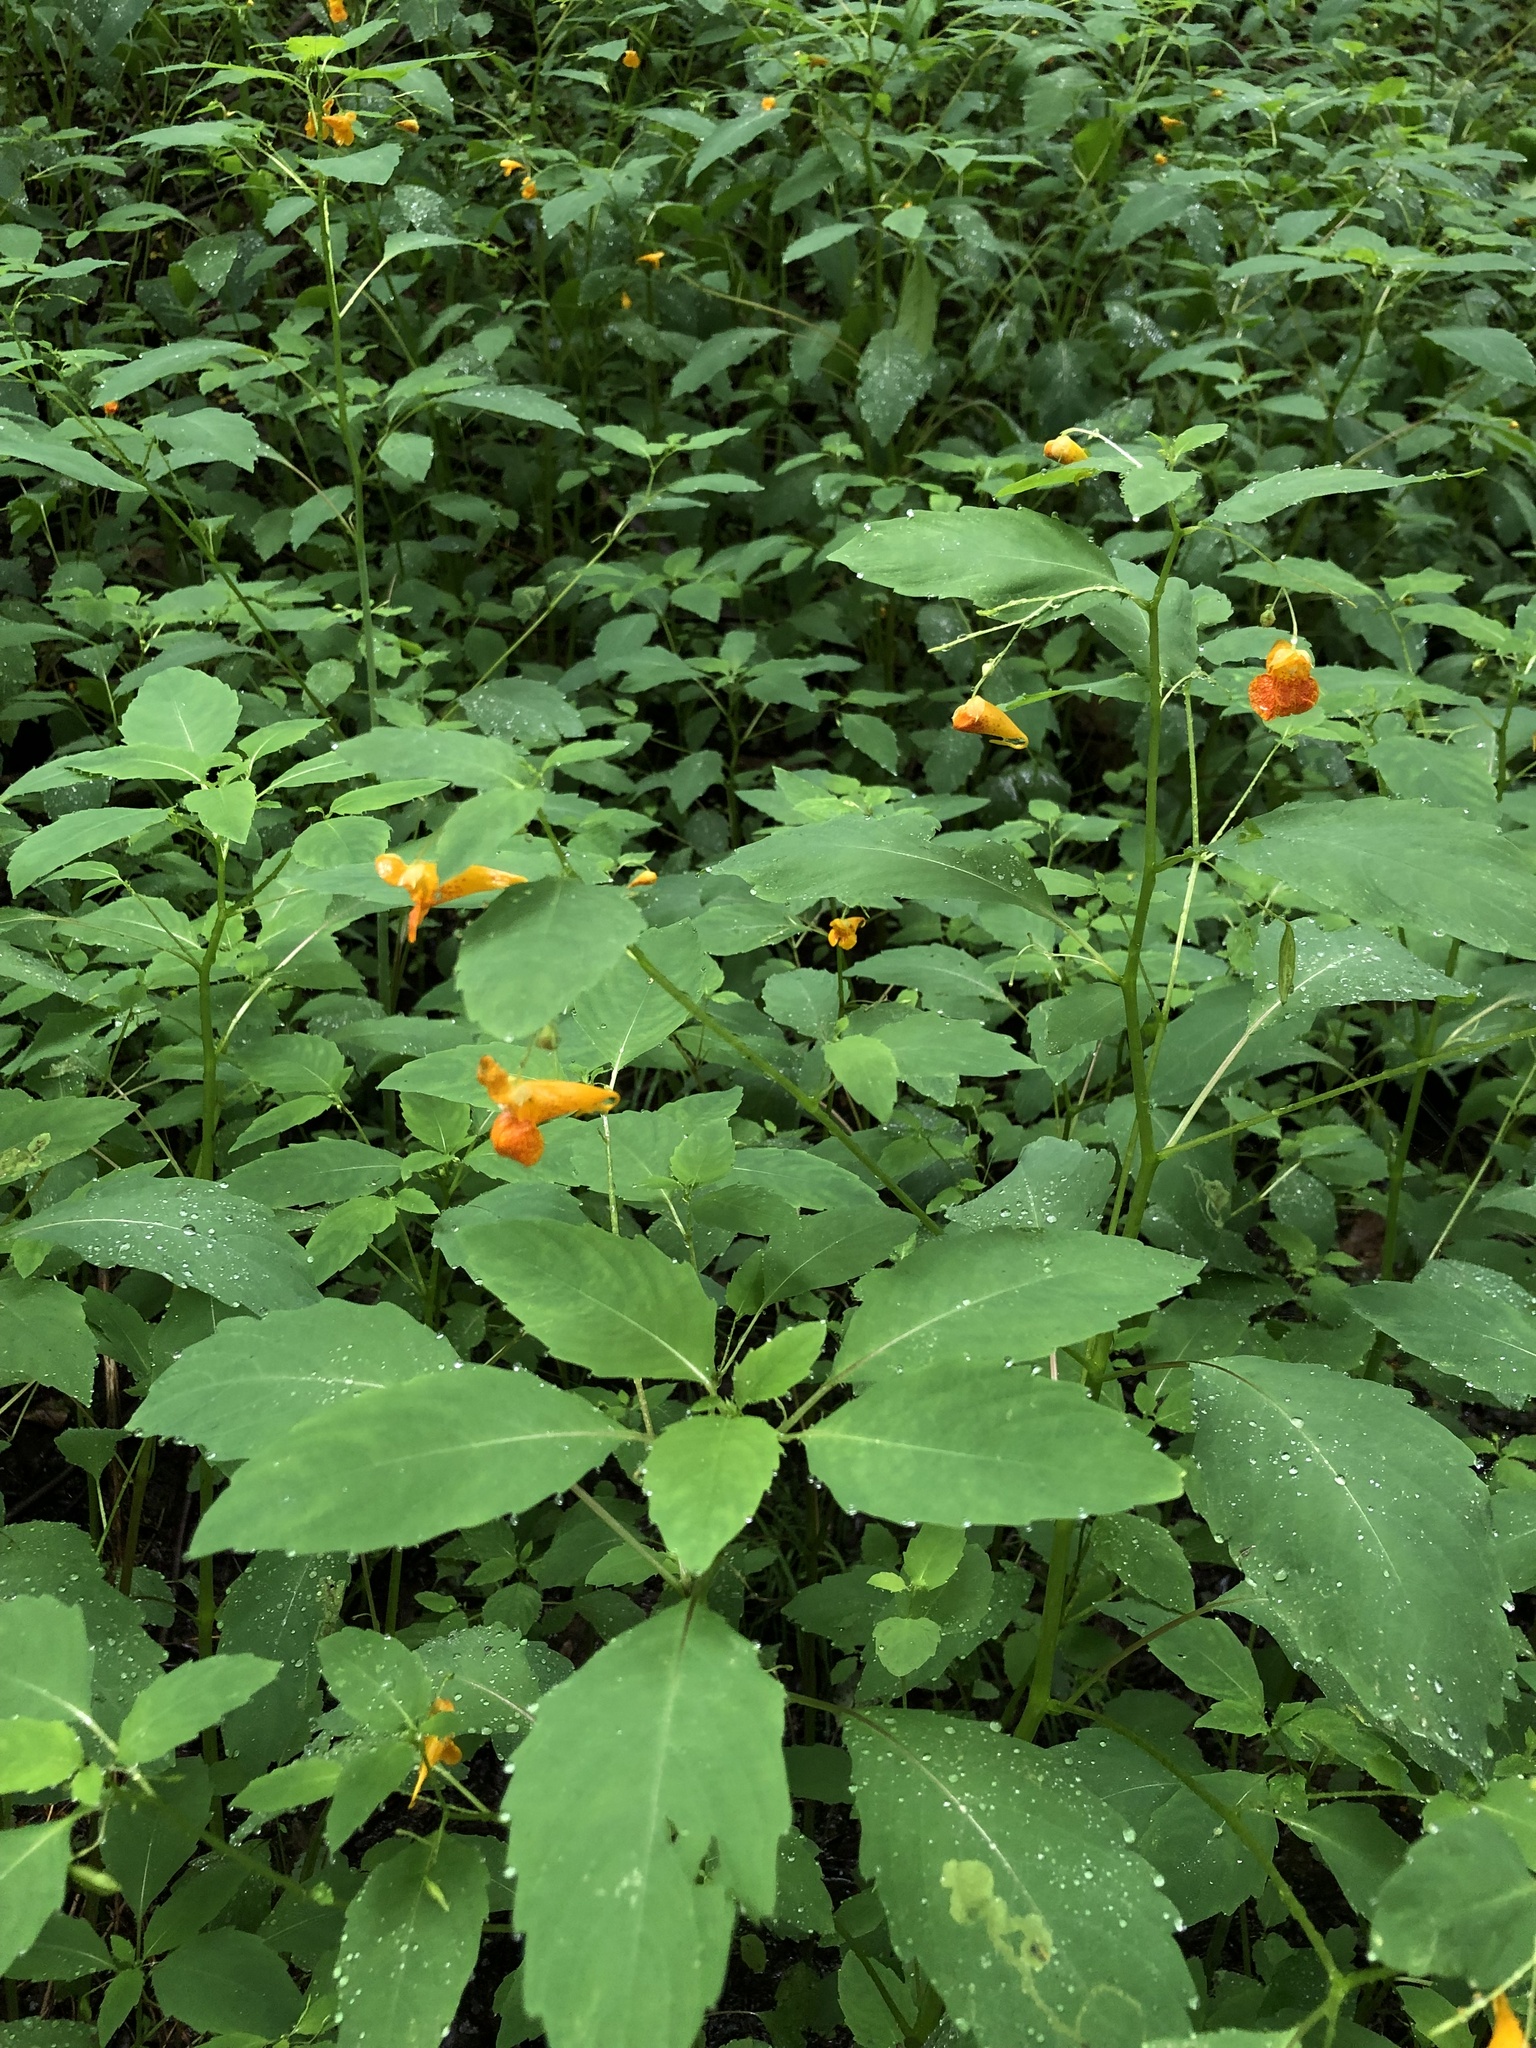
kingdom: Plantae
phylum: Tracheophyta
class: Magnoliopsida
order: Ericales
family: Balsaminaceae
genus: Impatiens
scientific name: Impatiens capensis
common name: Orange balsam
